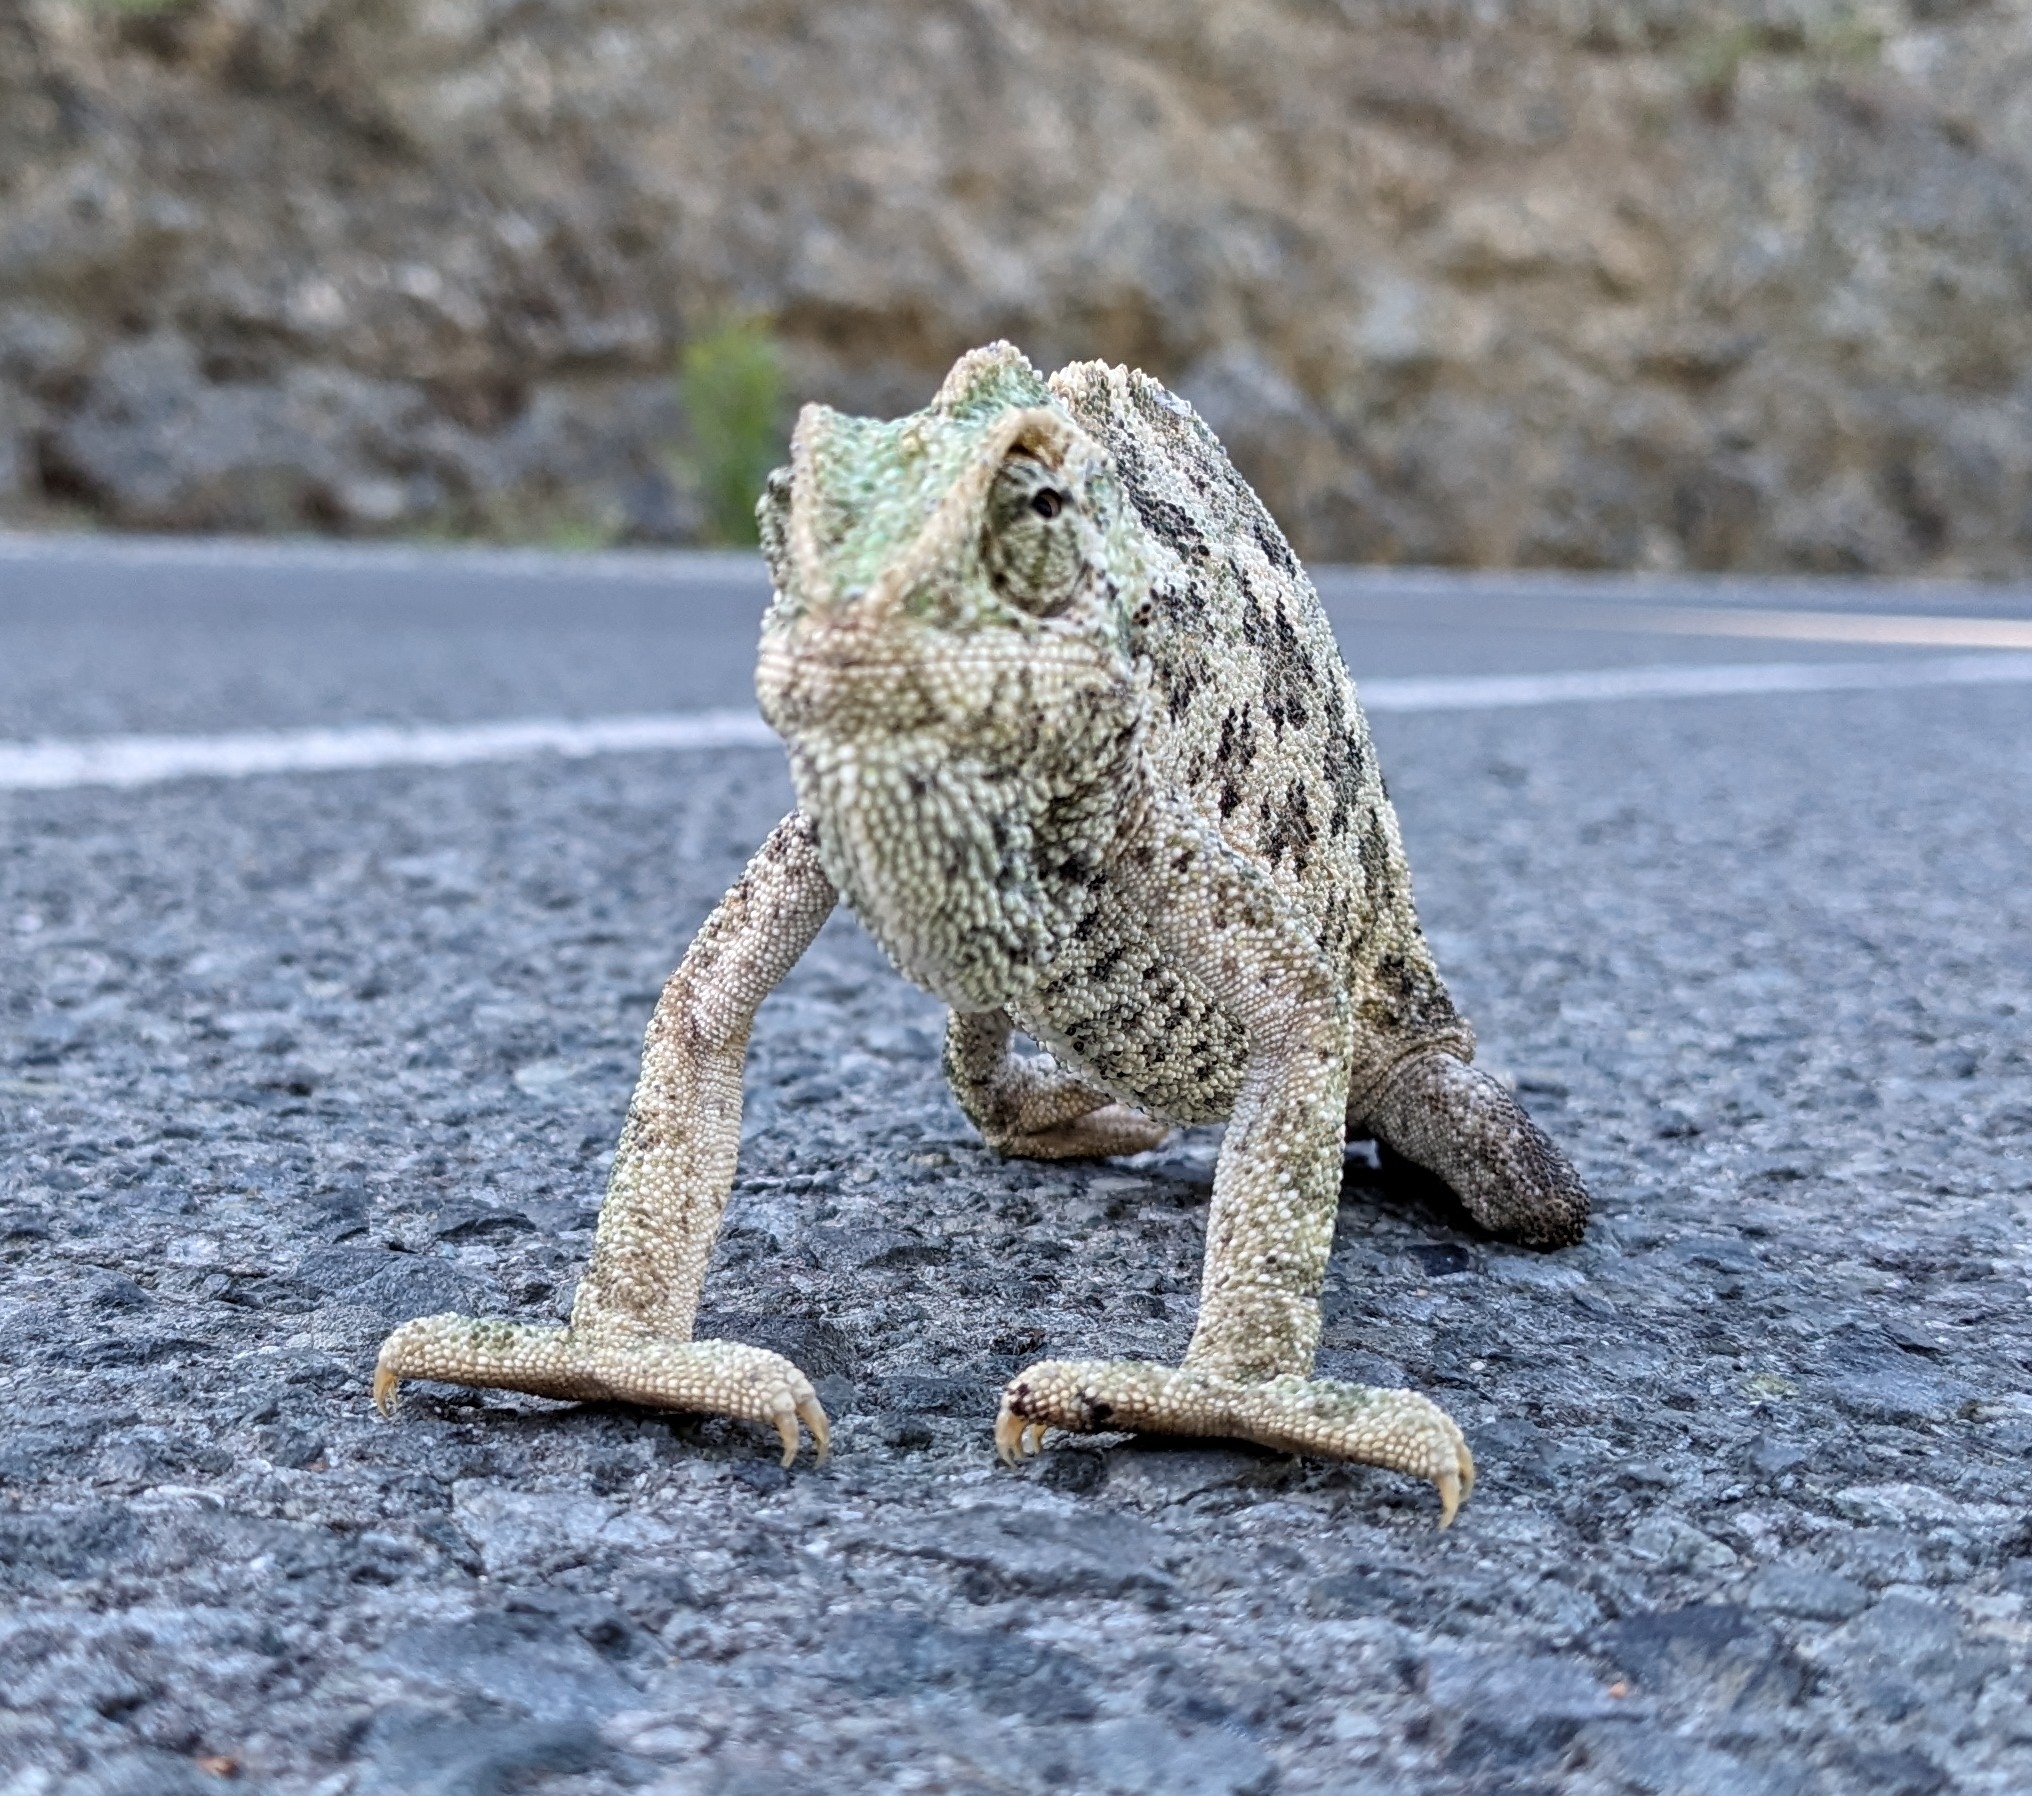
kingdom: Animalia
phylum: Chordata
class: Squamata
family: Chamaeleonidae
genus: Chamaeleo
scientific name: Chamaeleo chamaeleon
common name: Mediterranean chameleon
